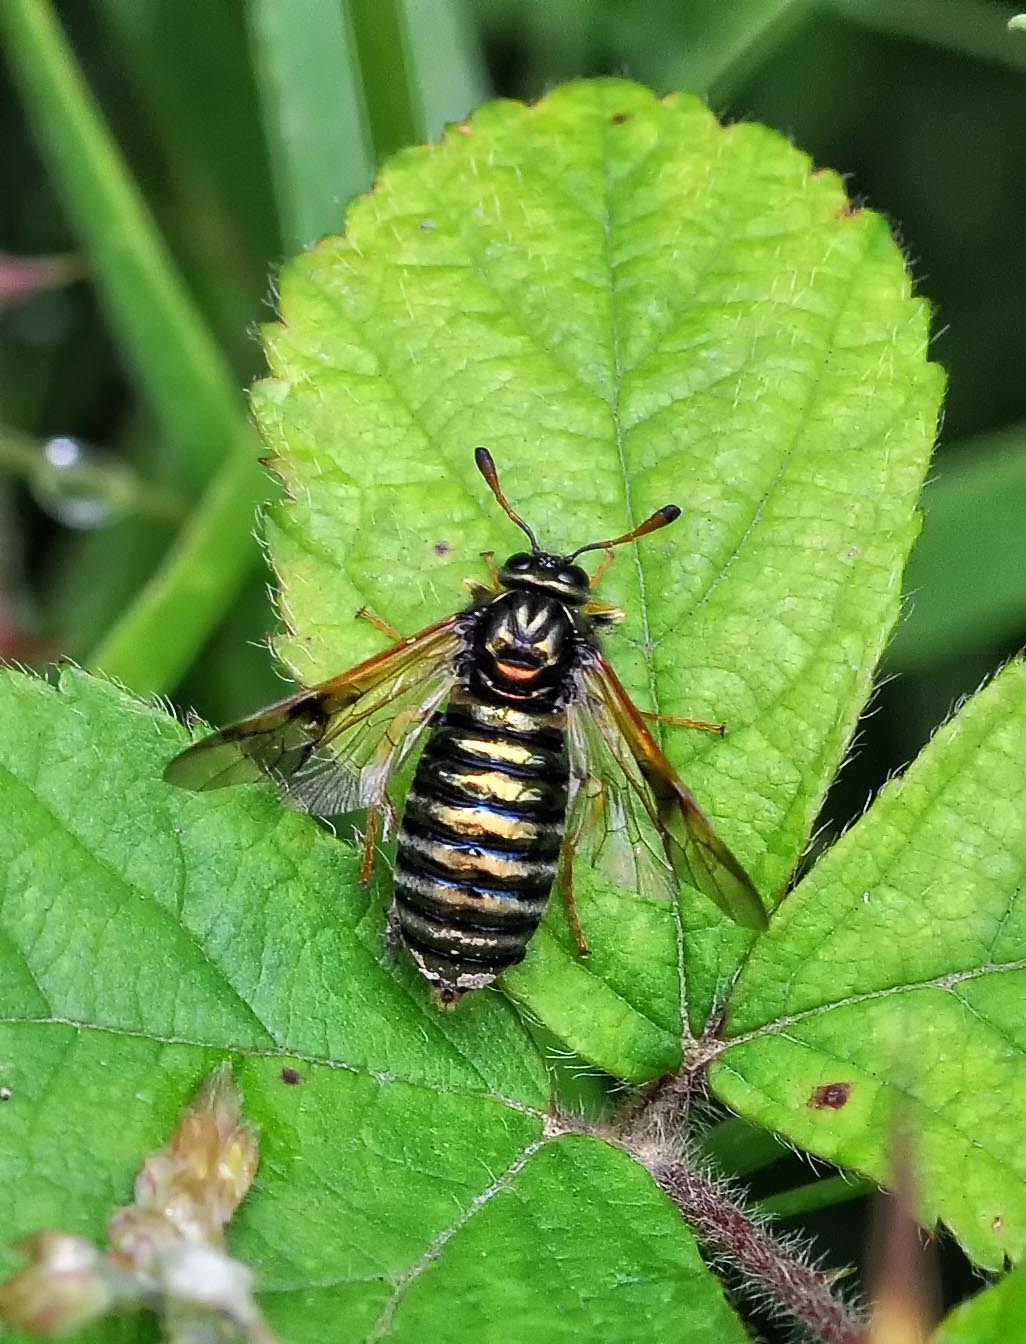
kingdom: Animalia
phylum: Arthropoda
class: Insecta
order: Hymenoptera
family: Cimbicidae
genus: Abia
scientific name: Abia candens
